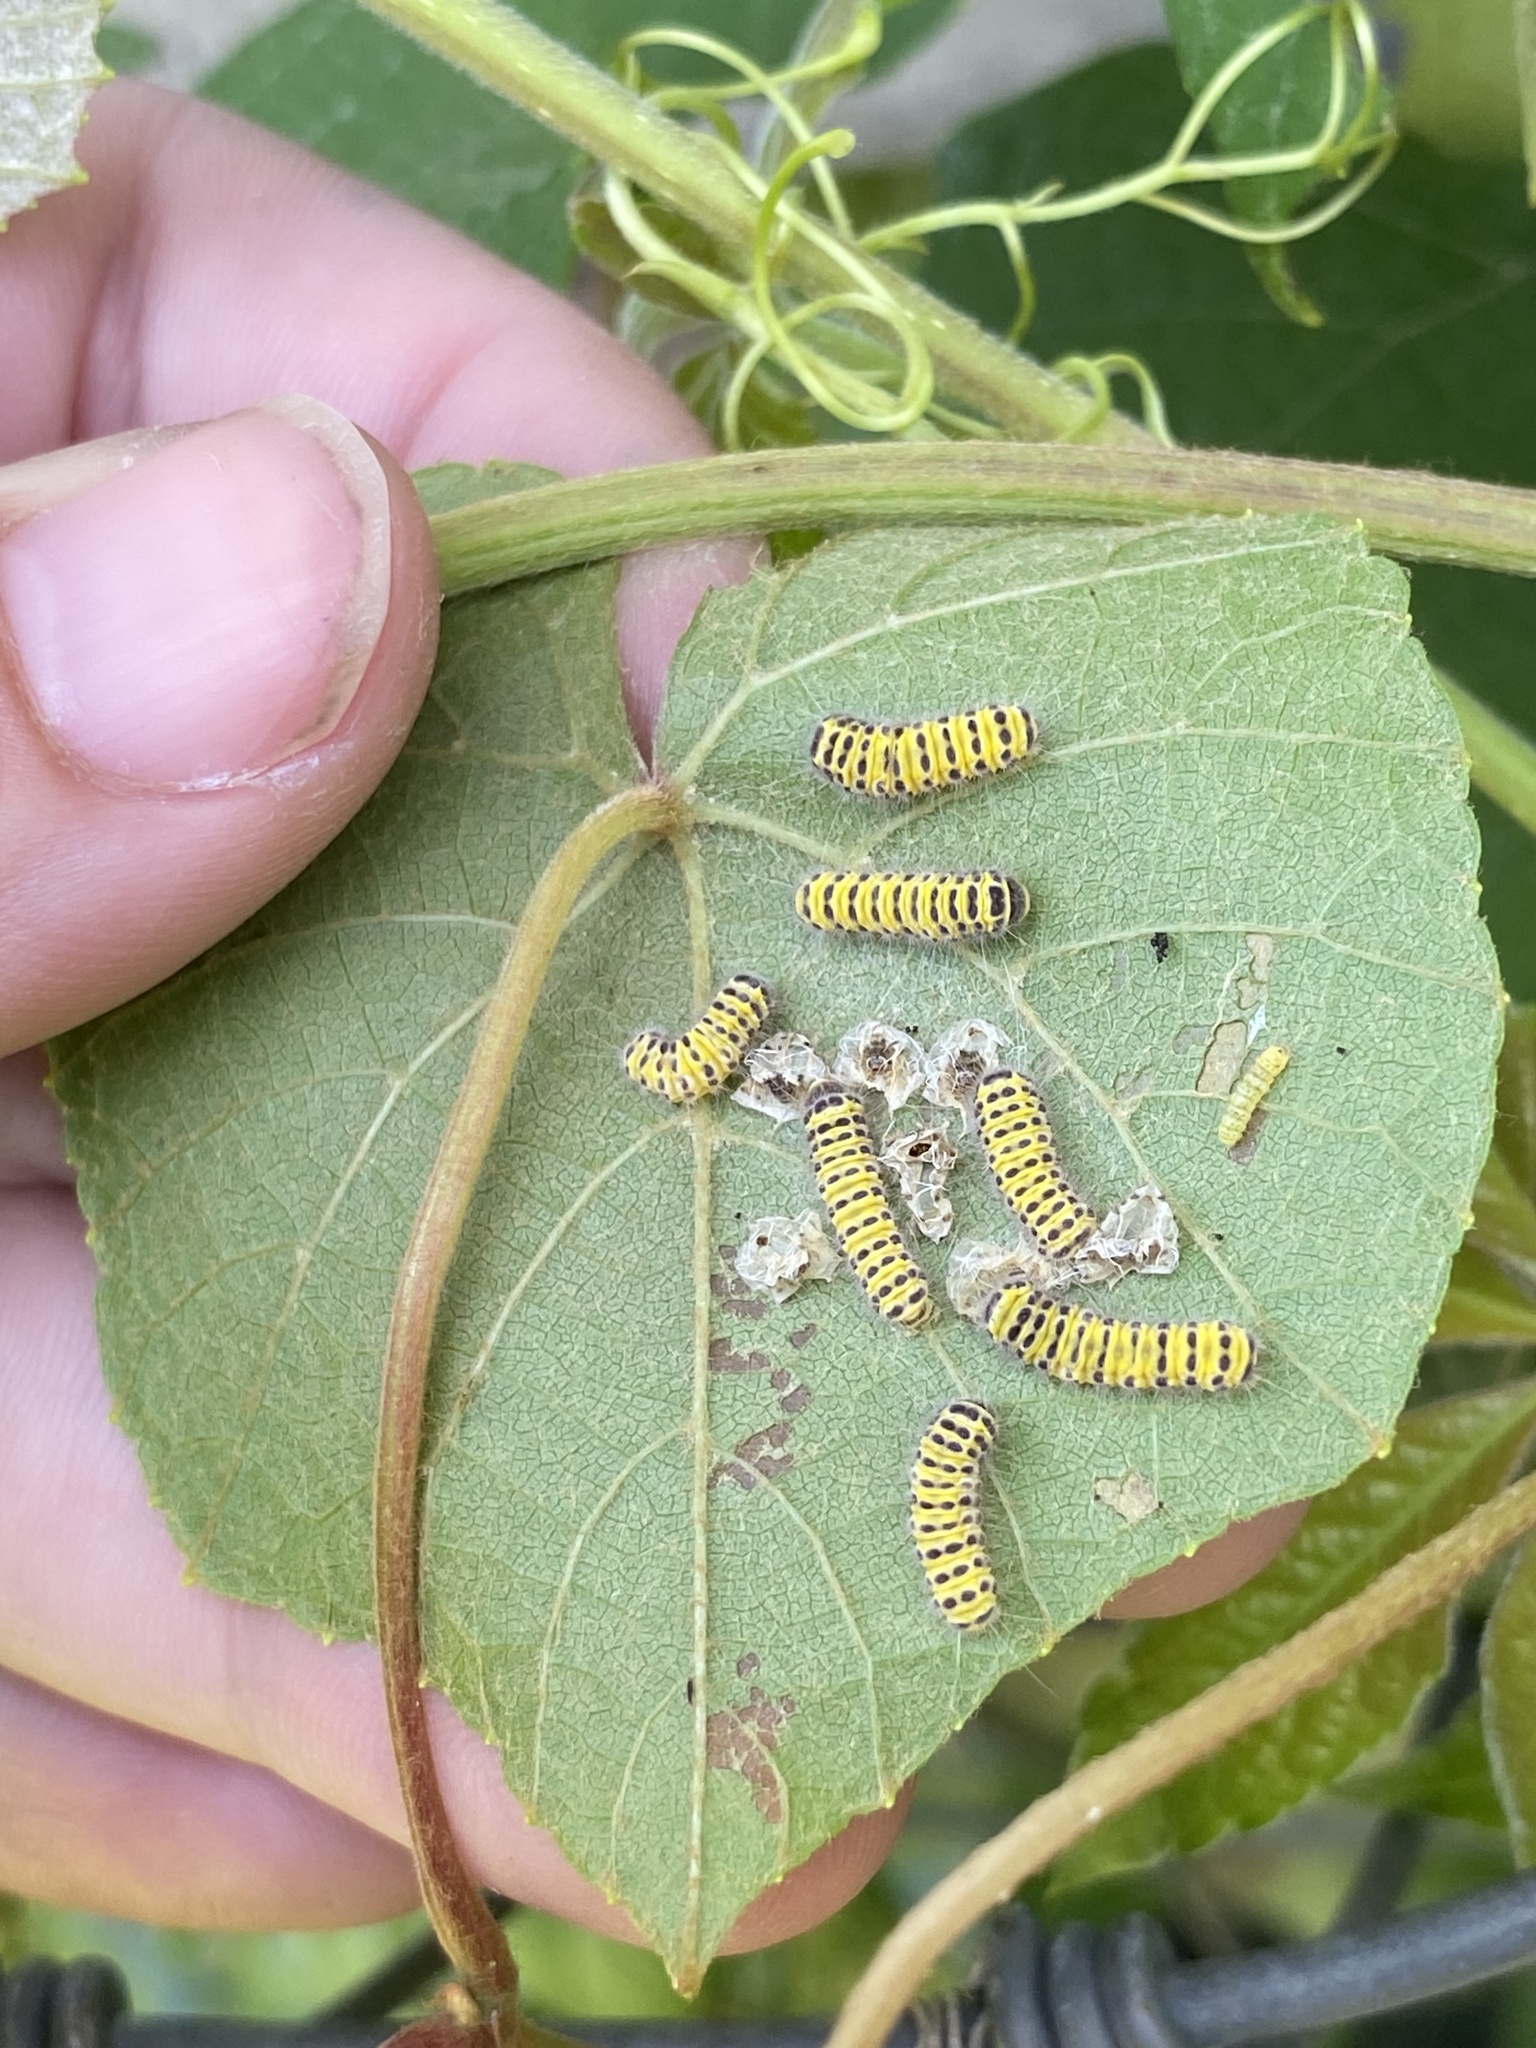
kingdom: Animalia
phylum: Arthropoda
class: Insecta
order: Lepidoptera
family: Zygaenidae
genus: Harrisina
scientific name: Harrisina americana
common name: Grapeleaf skeletonizer moth
